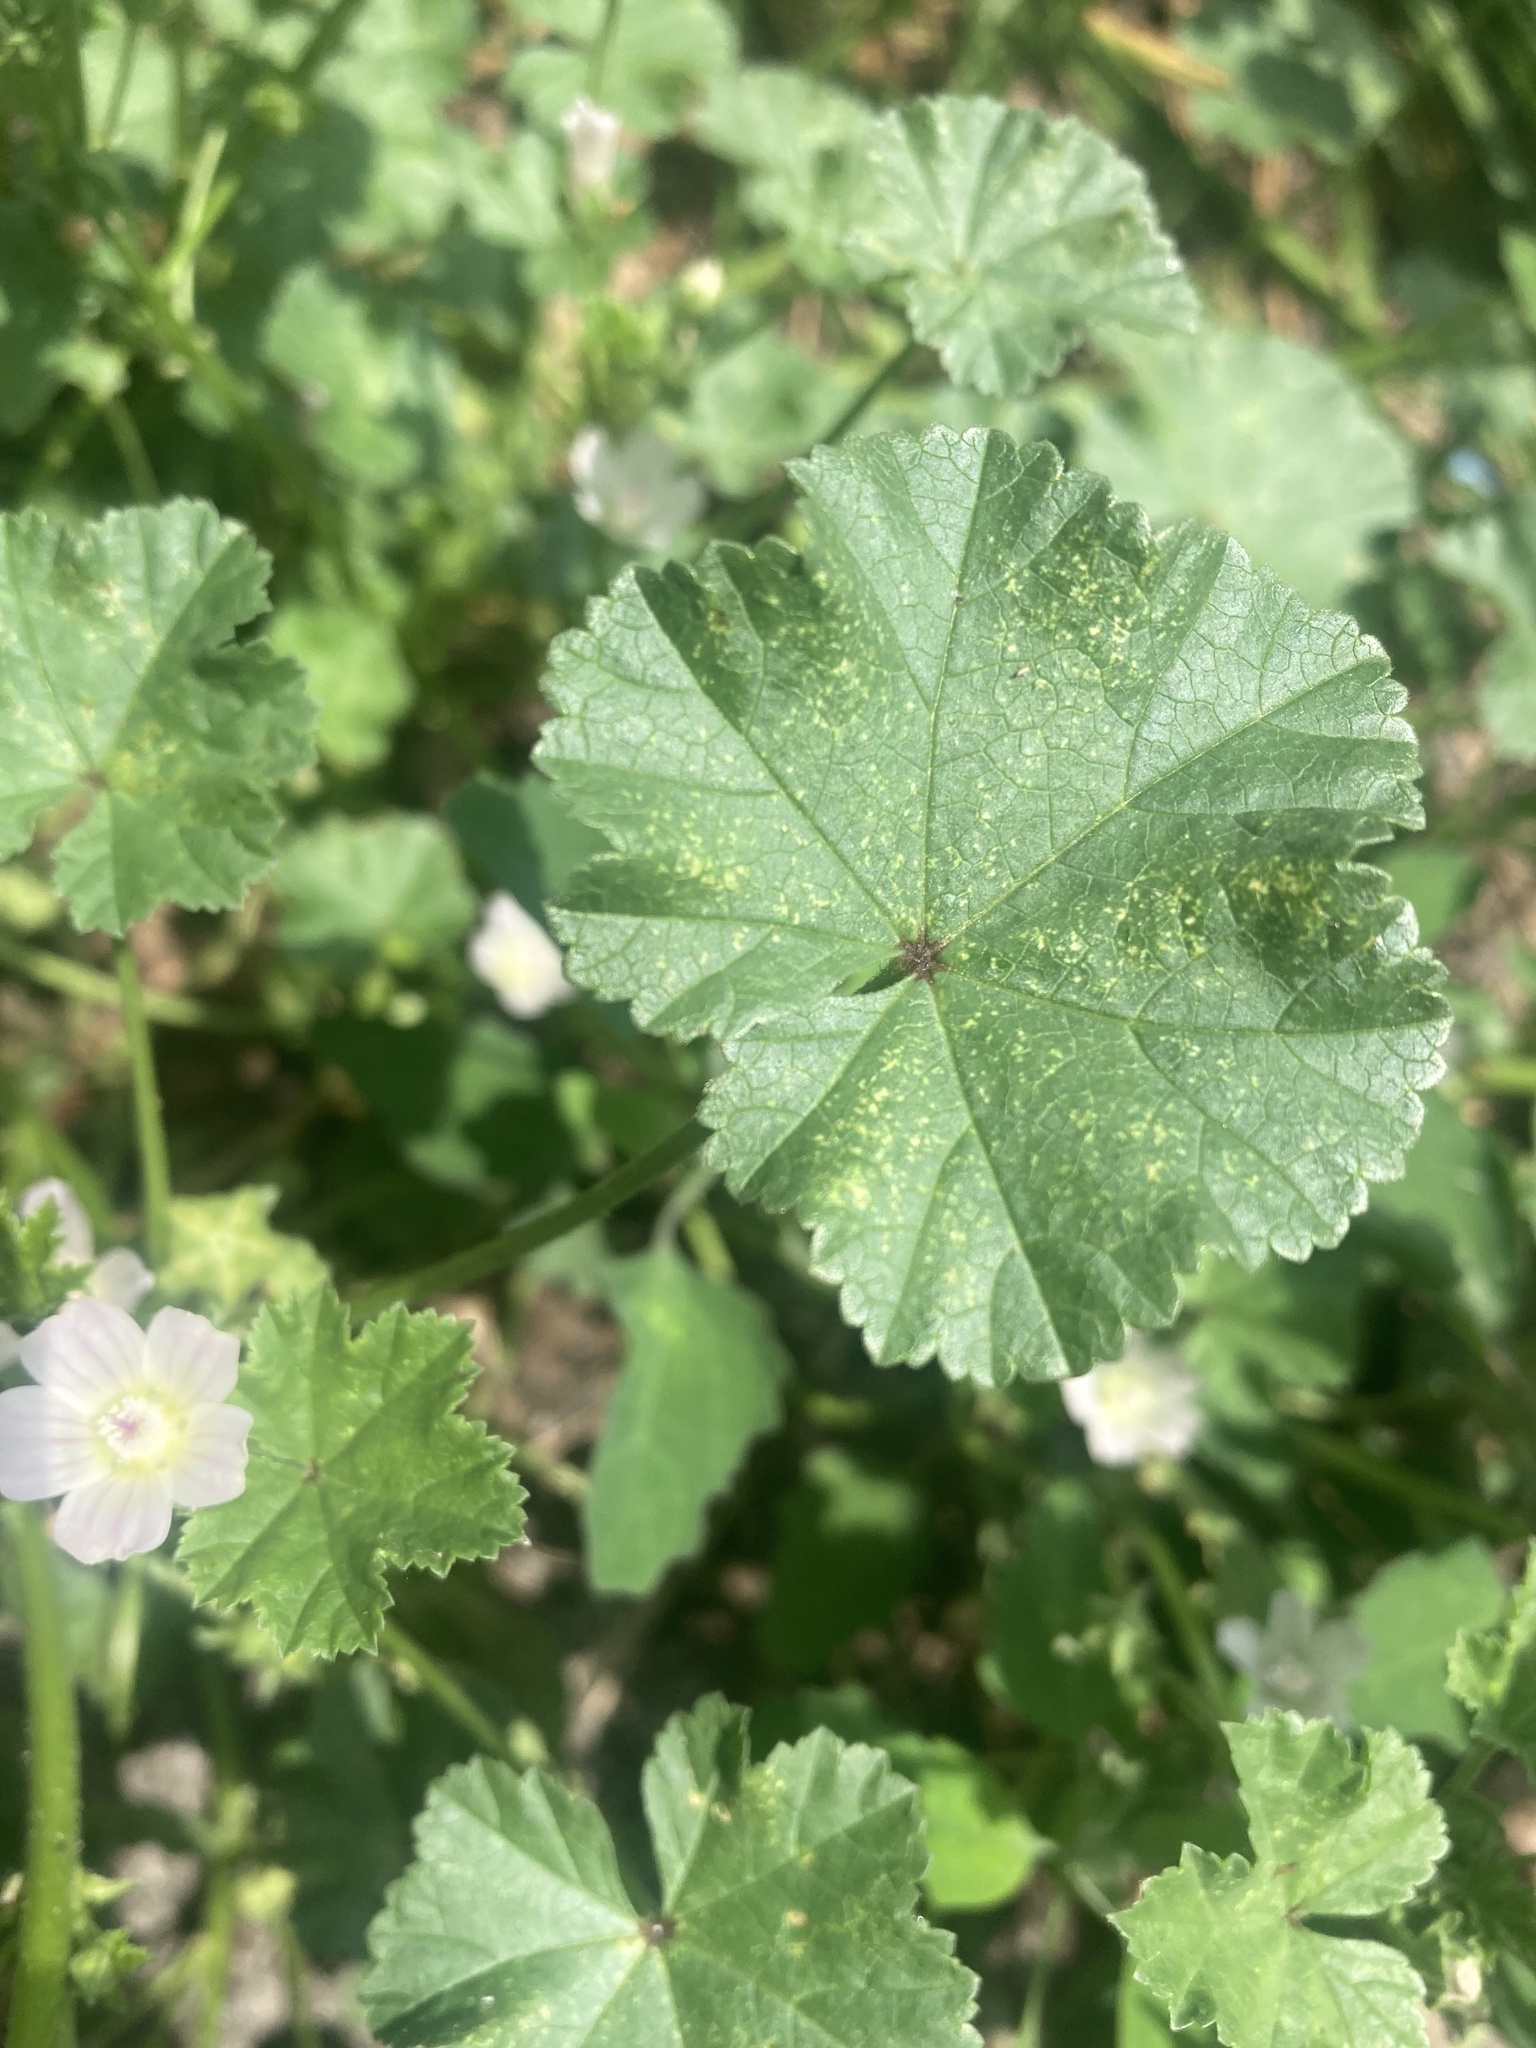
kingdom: Plantae
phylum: Tracheophyta
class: Magnoliopsida
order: Malvales
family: Malvaceae
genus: Malva
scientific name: Malva neglecta
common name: Common mallow
